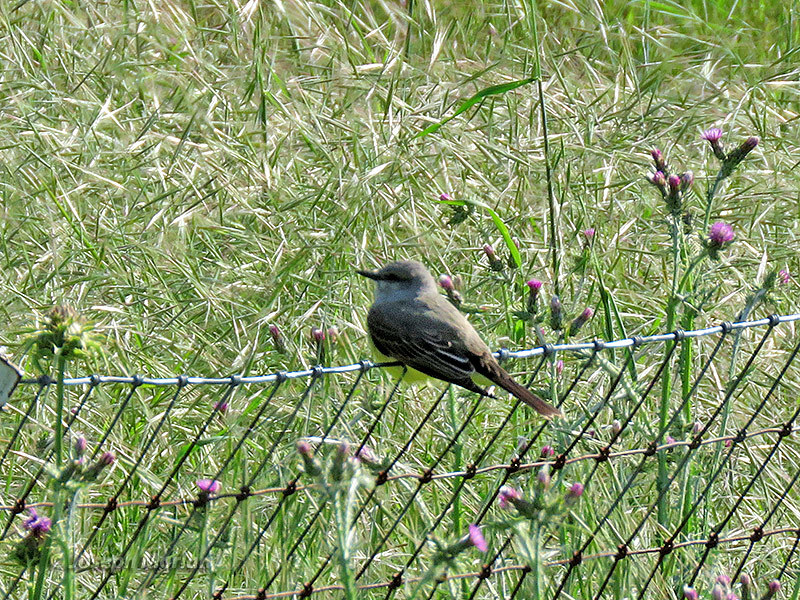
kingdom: Animalia
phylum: Chordata
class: Aves
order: Passeriformes
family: Tyrannidae
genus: Tyrannus
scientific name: Tyrannus verticalis
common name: Western kingbird
